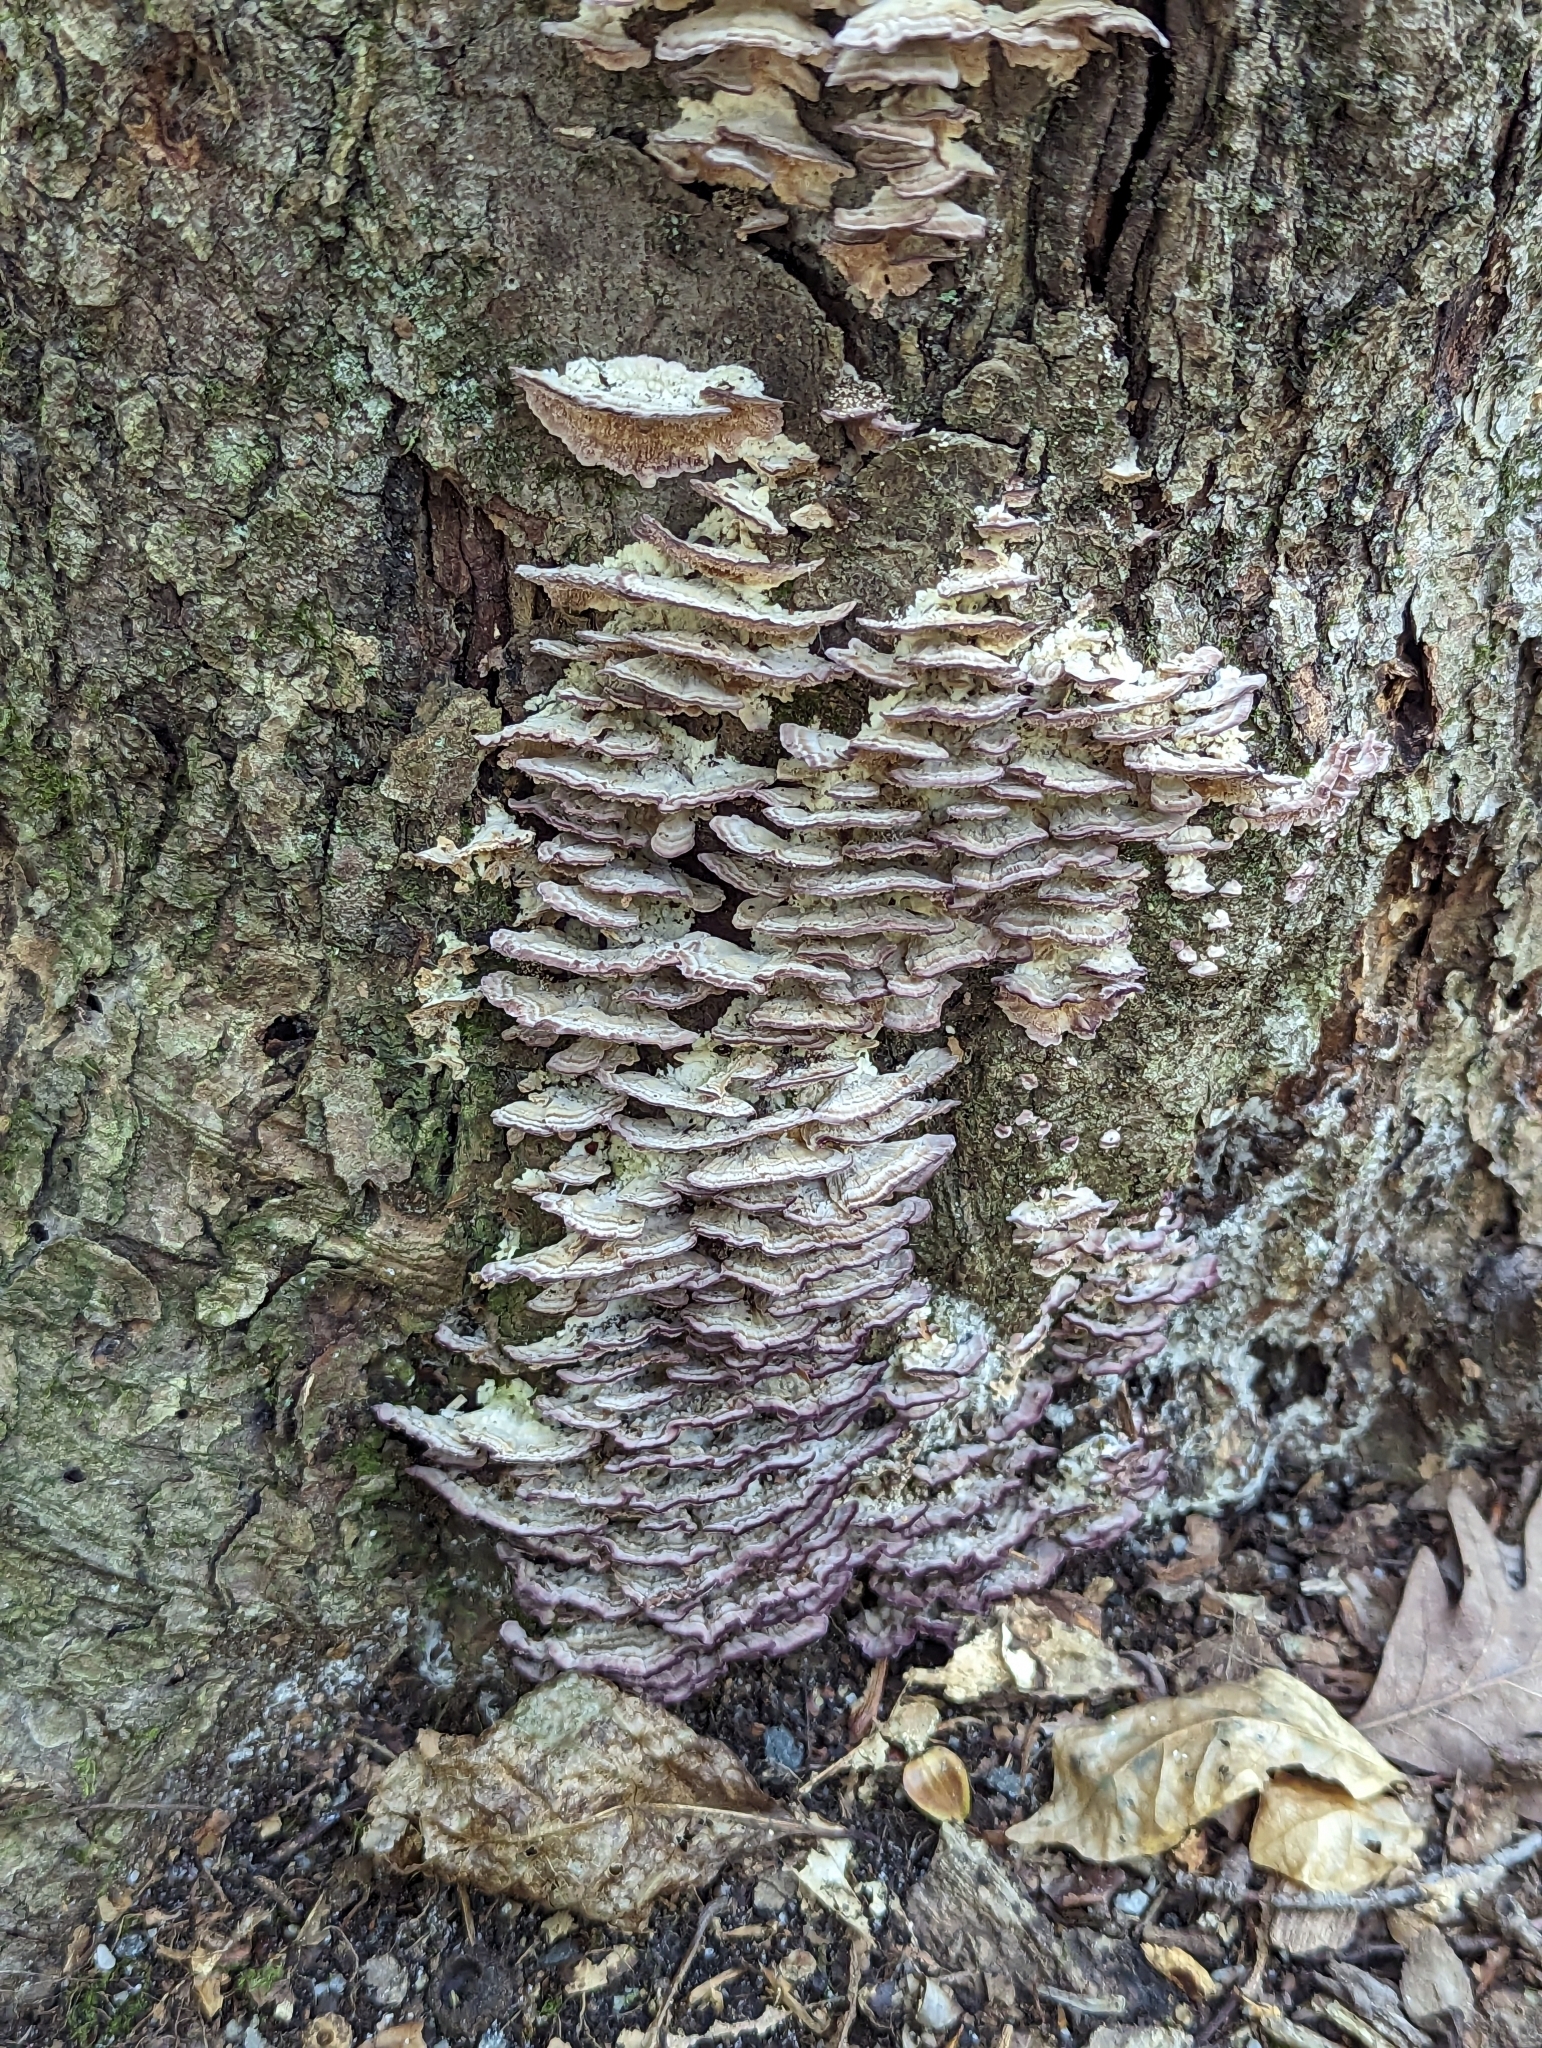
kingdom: Fungi
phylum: Basidiomycota
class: Agaricomycetes
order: Hymenochaetales
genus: Trichaptum
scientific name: Trichaptum biforme
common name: Violet-toothed polypore
